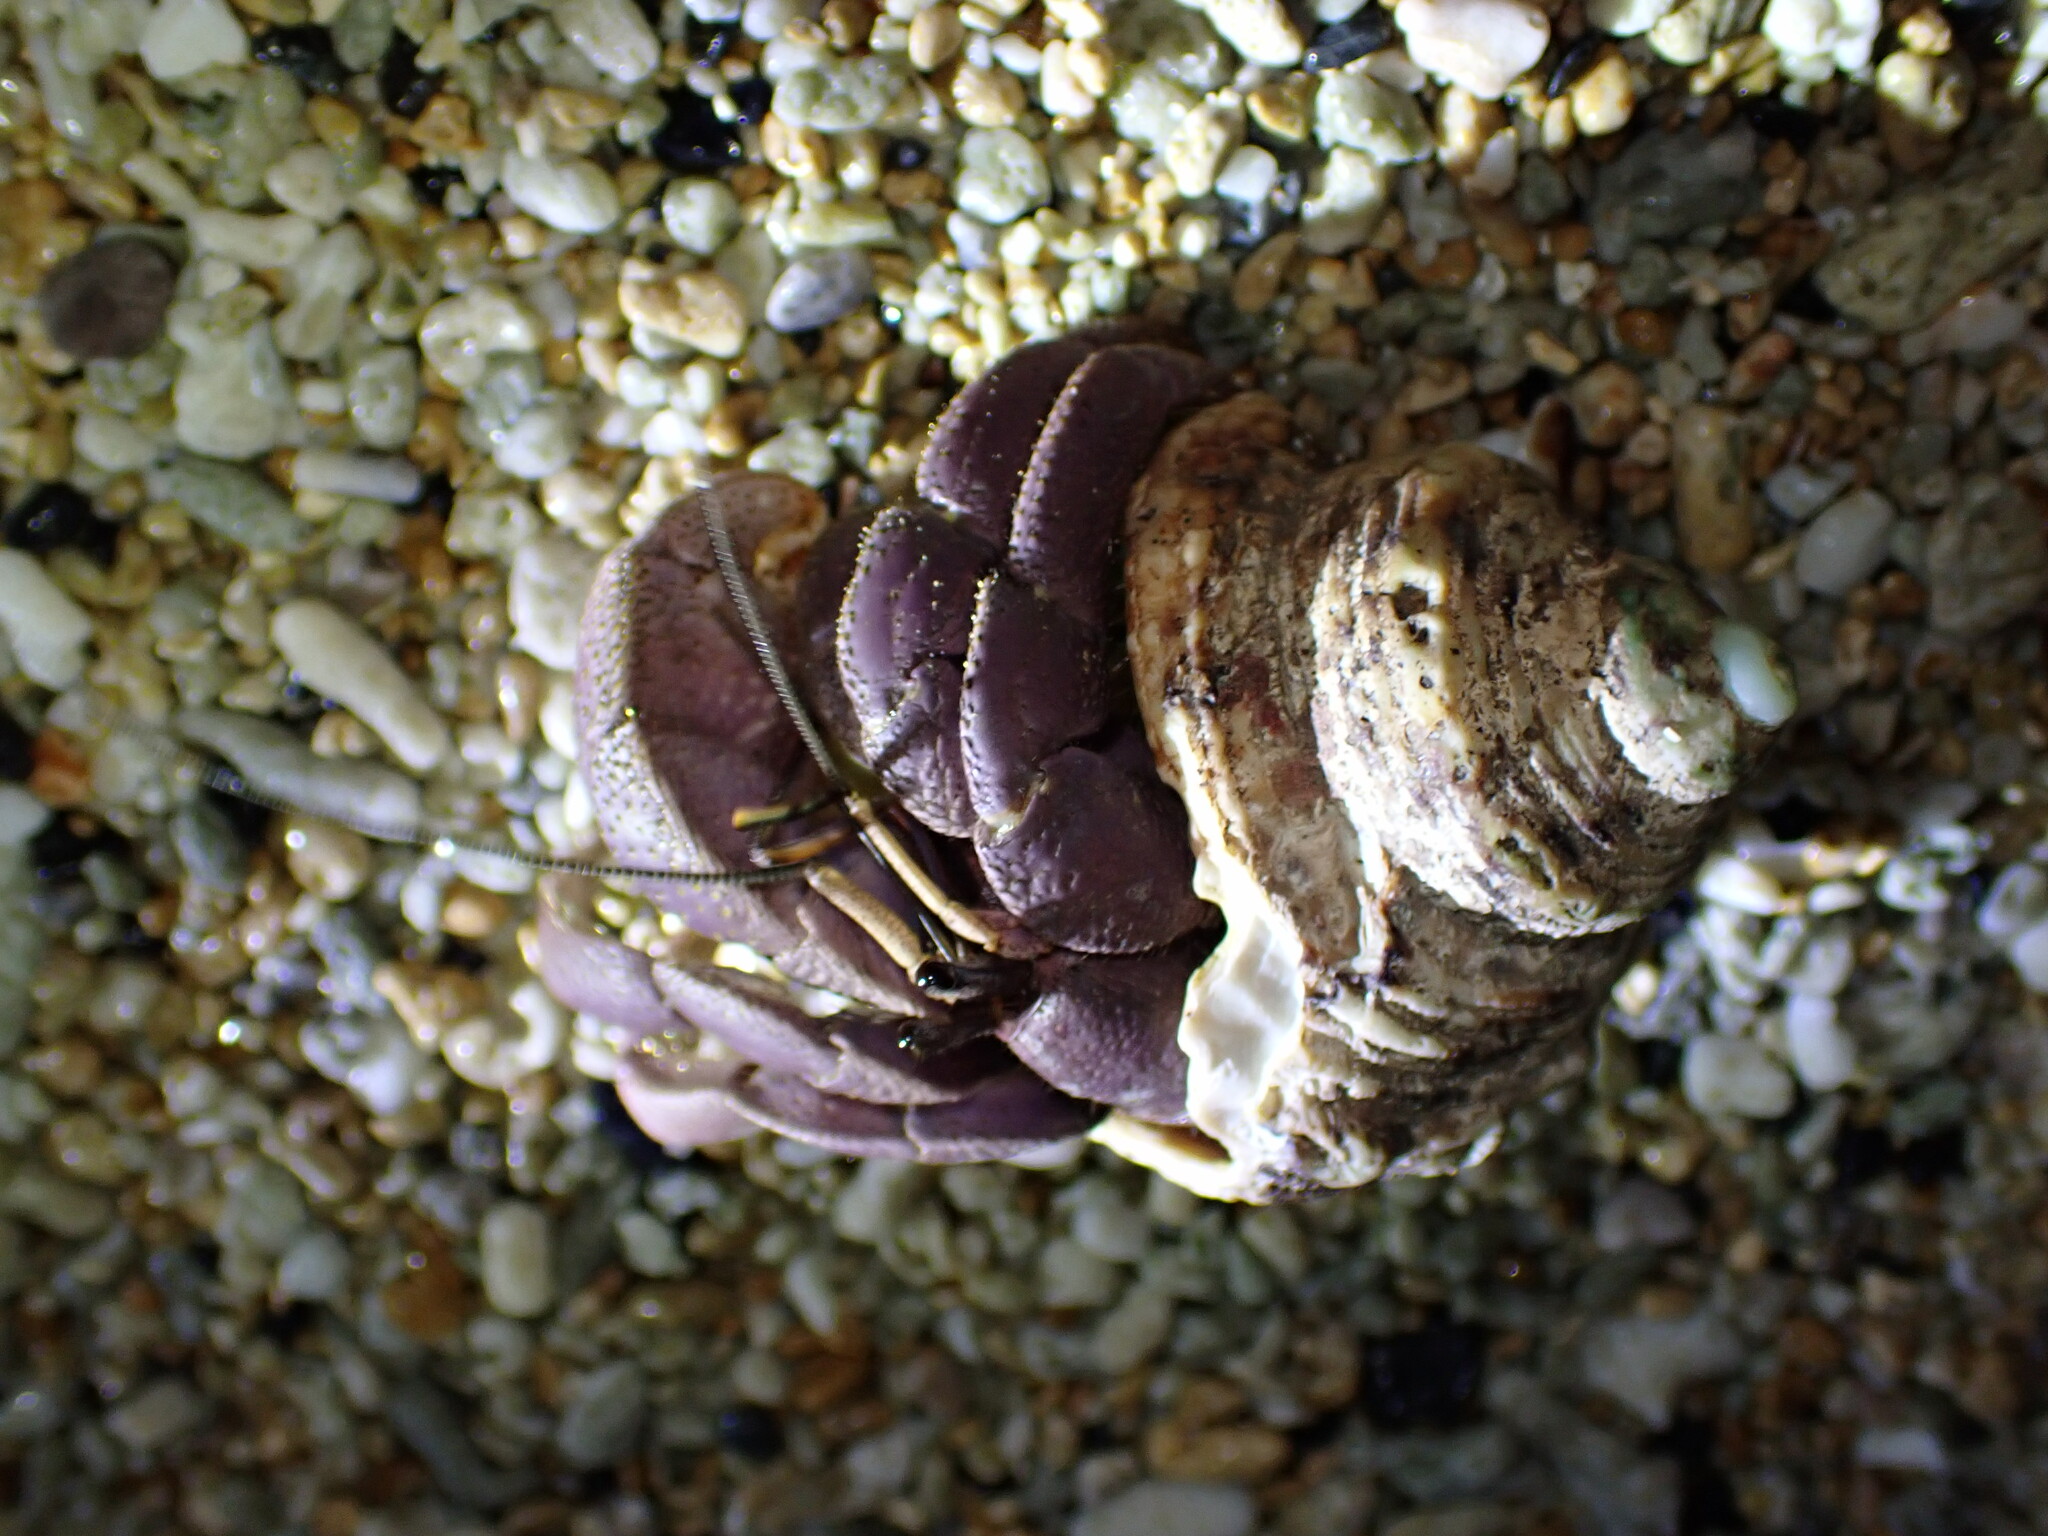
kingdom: Animalia
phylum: Arthropoda
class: Malacostraca
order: Decapoda
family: Coenobitidae
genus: Coenobita
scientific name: Coenobita brevimanus
